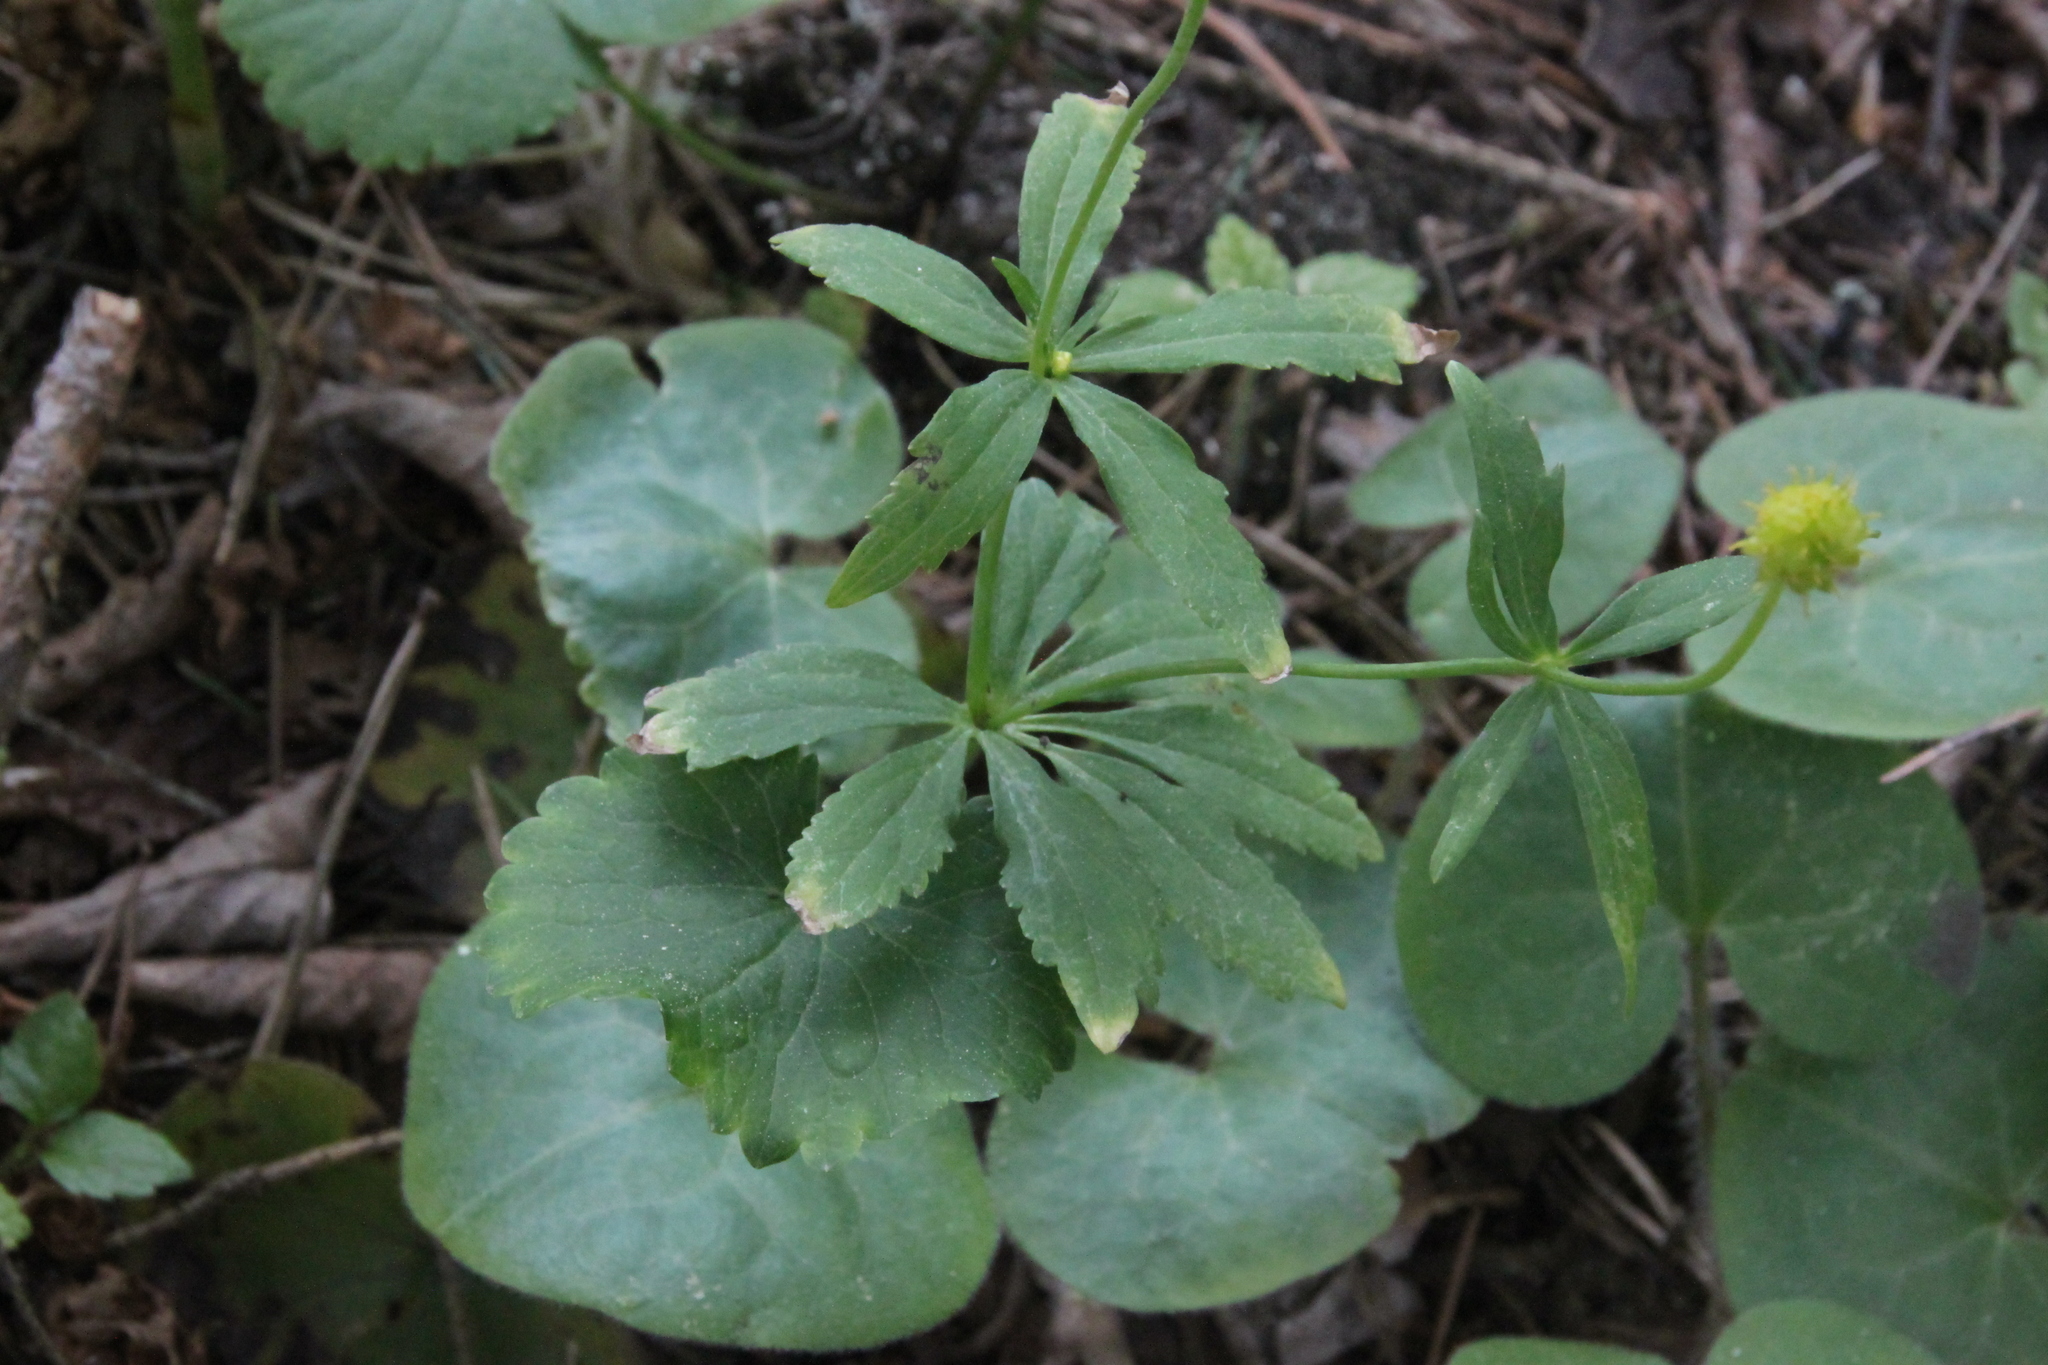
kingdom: Plantae
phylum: Tracheophyta
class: Magnoliopsida
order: Ranunculales
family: Ranunculaceae
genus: Ranunculus
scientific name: Ranunculus cassubicus
